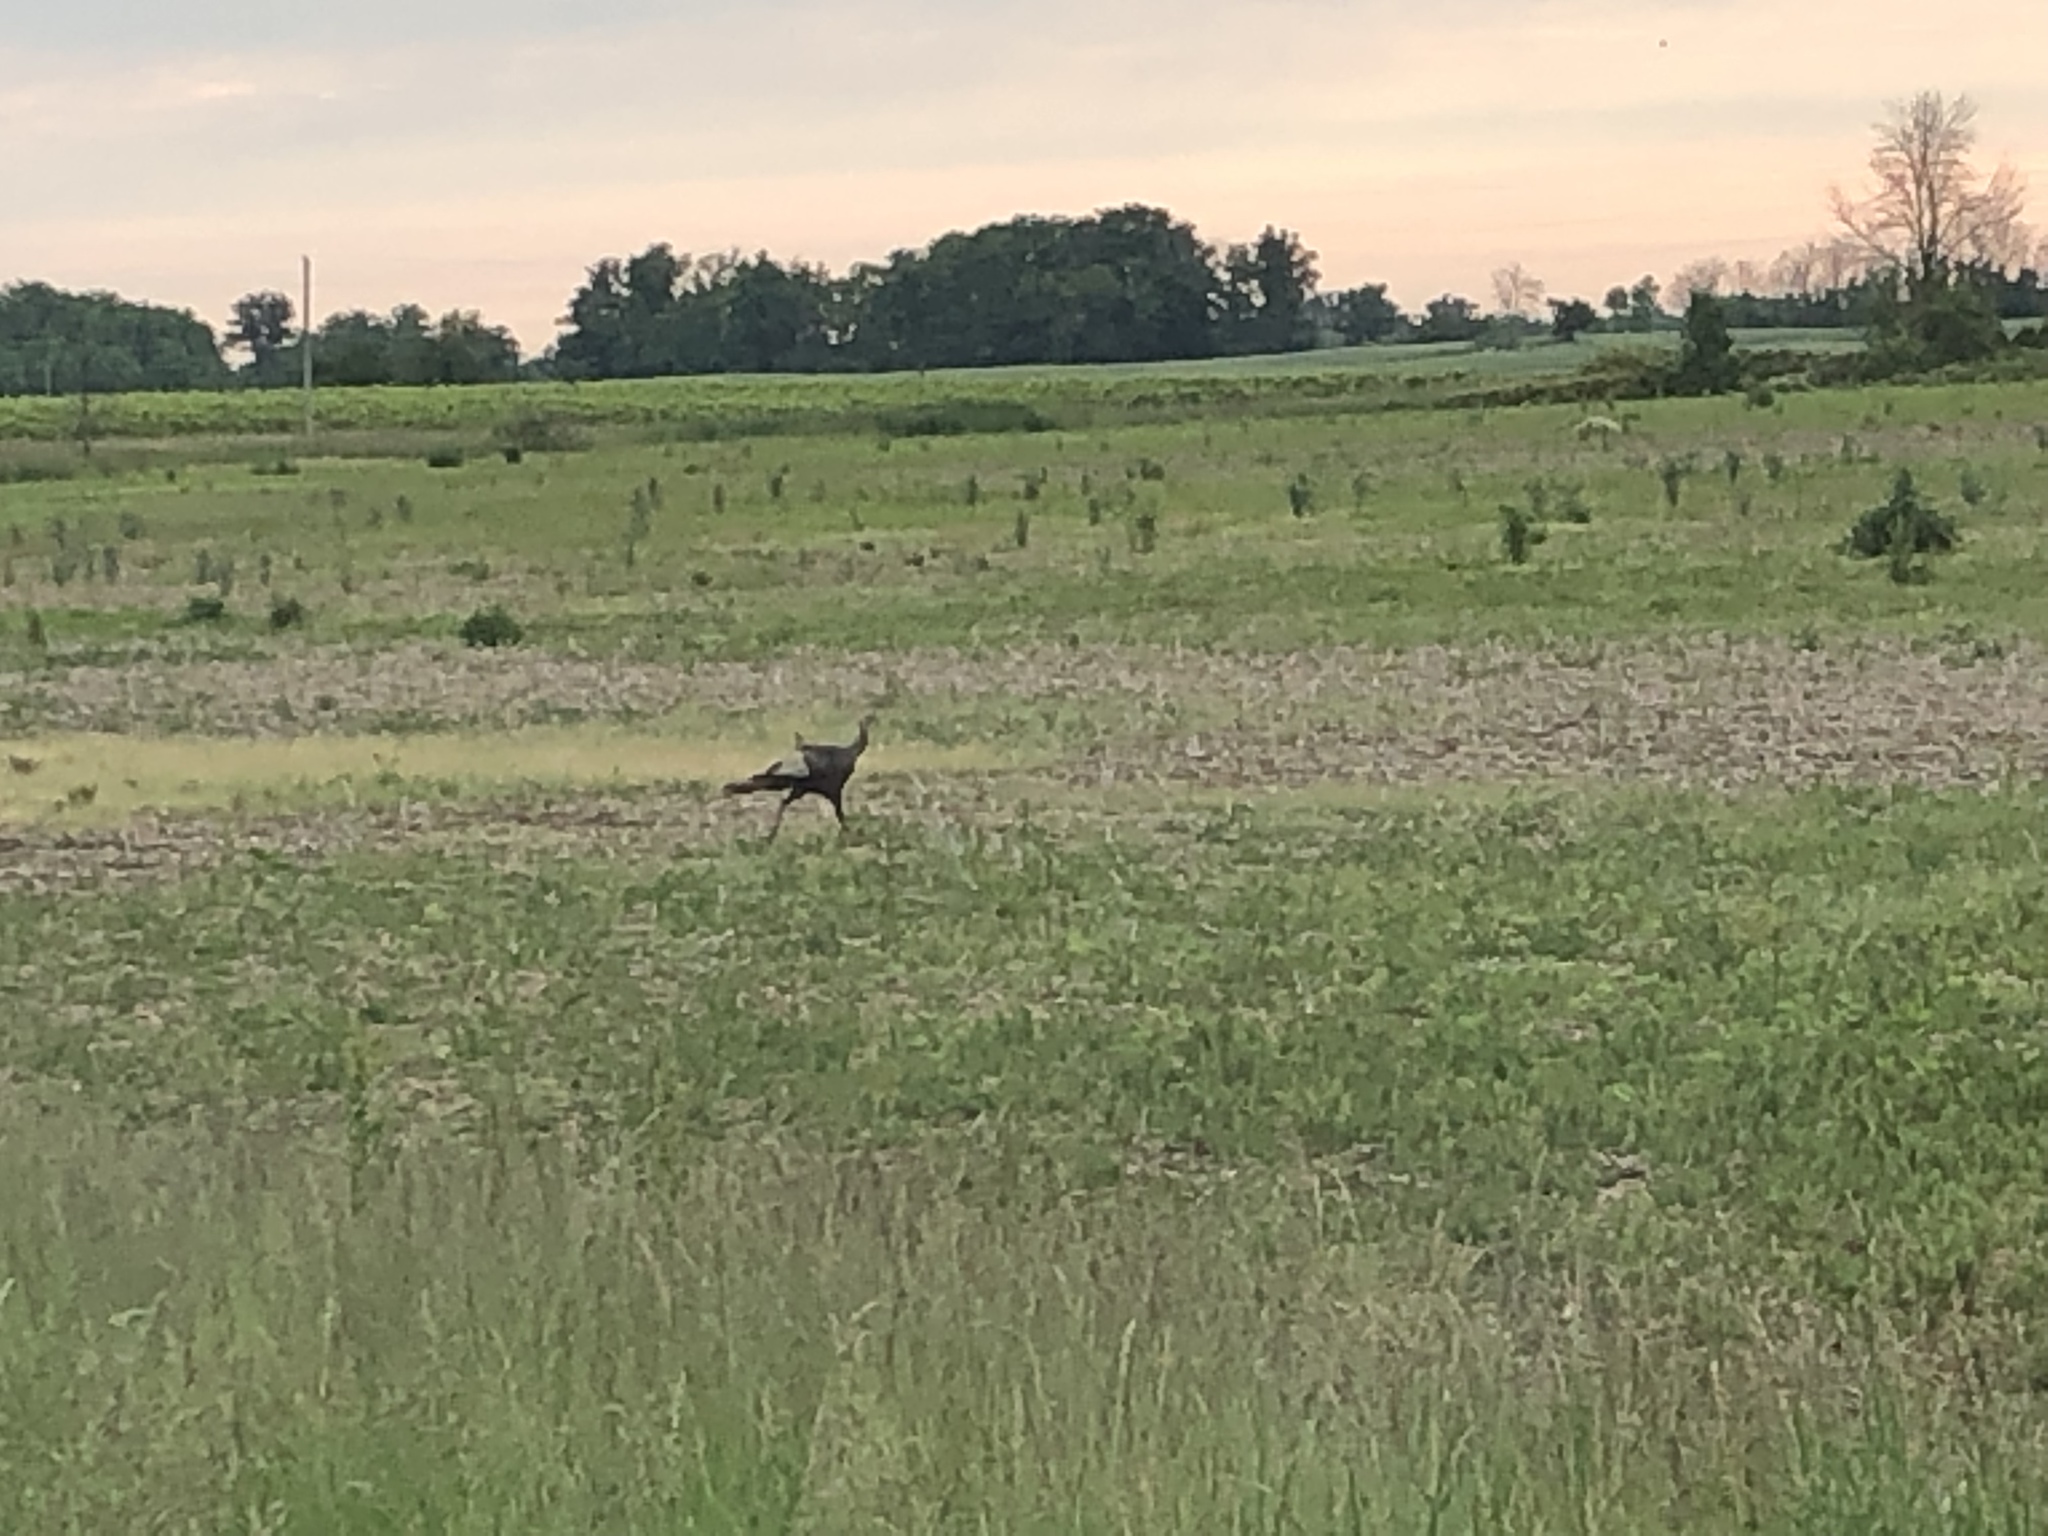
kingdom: Animalia
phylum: Chordata
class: Aves
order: Galliformes
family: Phasianidae
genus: Meleagris
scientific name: Meleagris gallopavo
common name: Wild turkey
